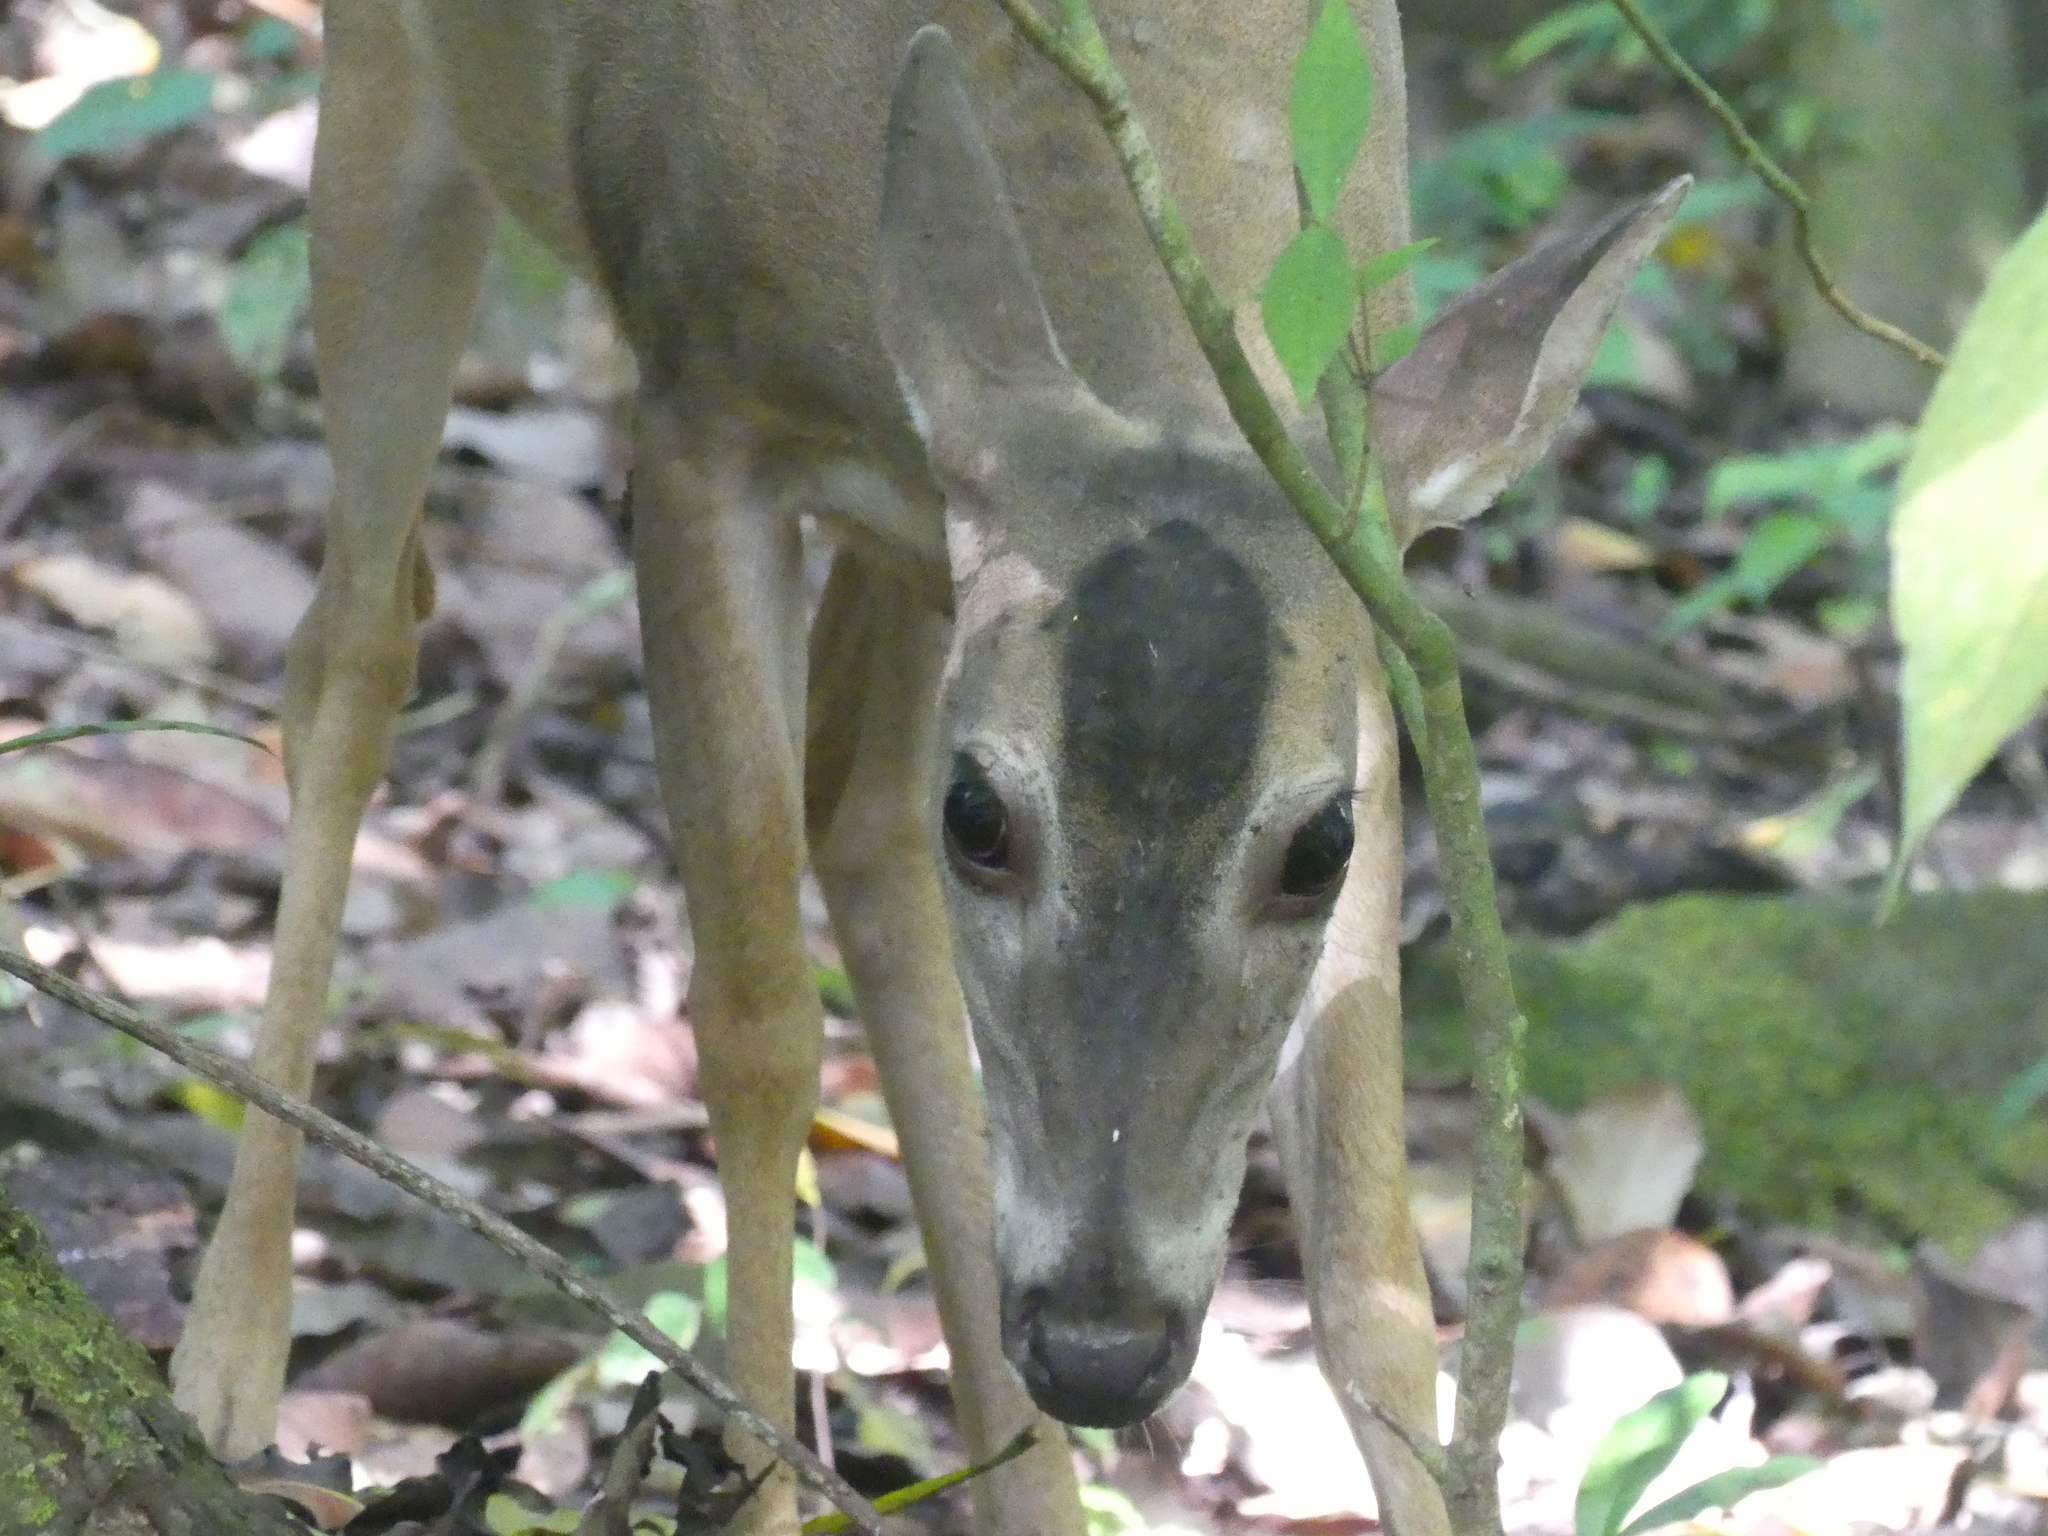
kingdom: Animalia
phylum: Chordata
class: Mammalia
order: Artiodactyla
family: Cervidae
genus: Odocoileus
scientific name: Odocoileus virginianus
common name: White-tailed deer
